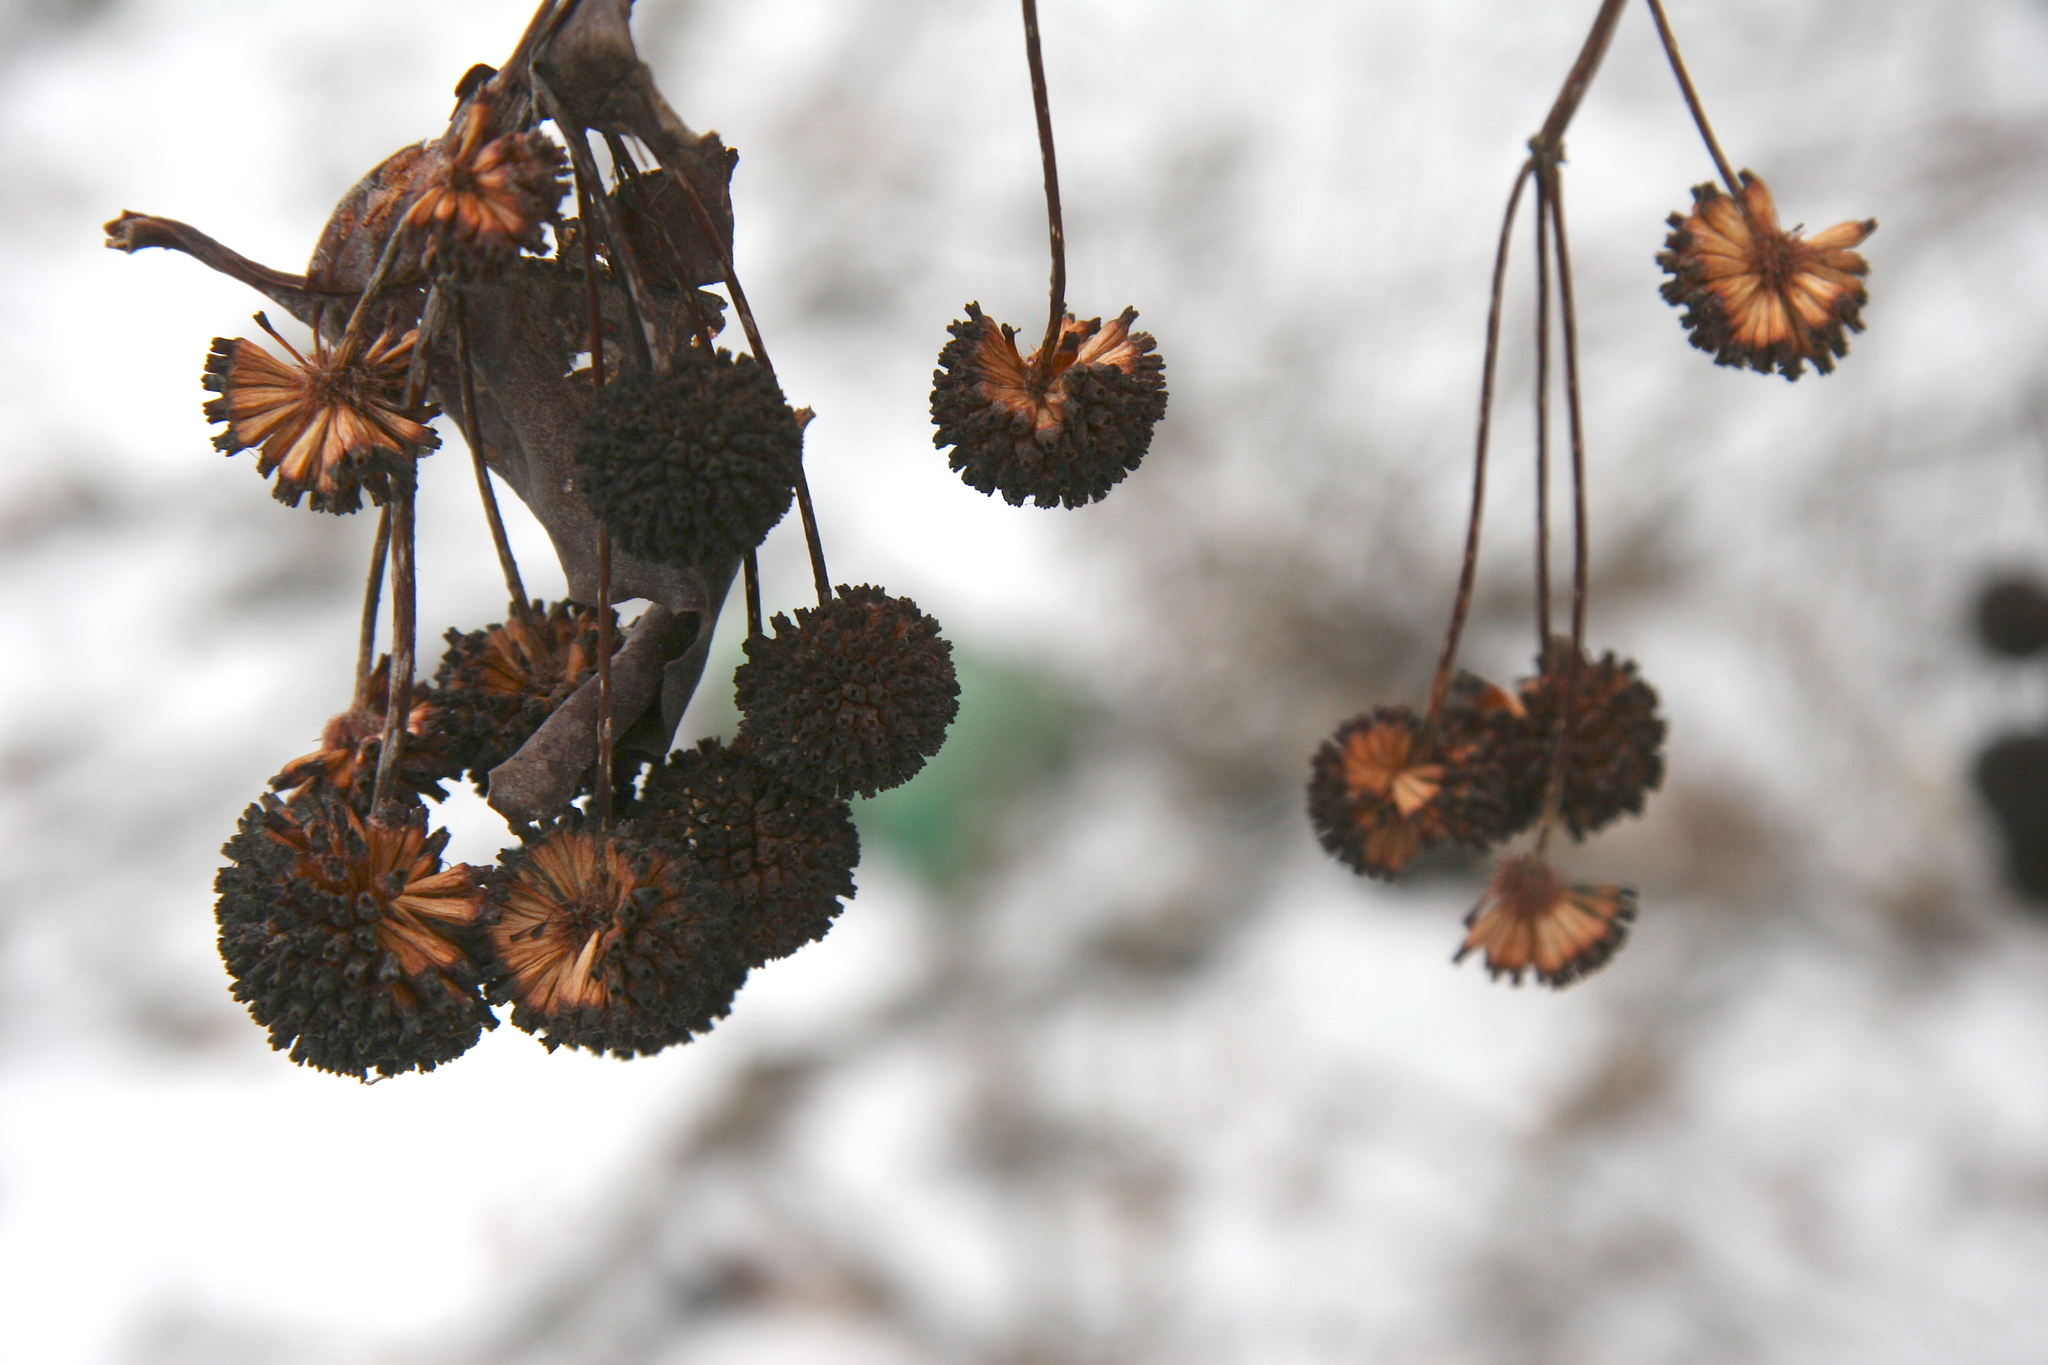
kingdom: Plantae
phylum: Tracheophyta
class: Magnoliopsida
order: Gentianales
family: Rubiaceae
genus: Cephalanthus
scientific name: Cephalanthus occidentalis
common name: Button-willow
